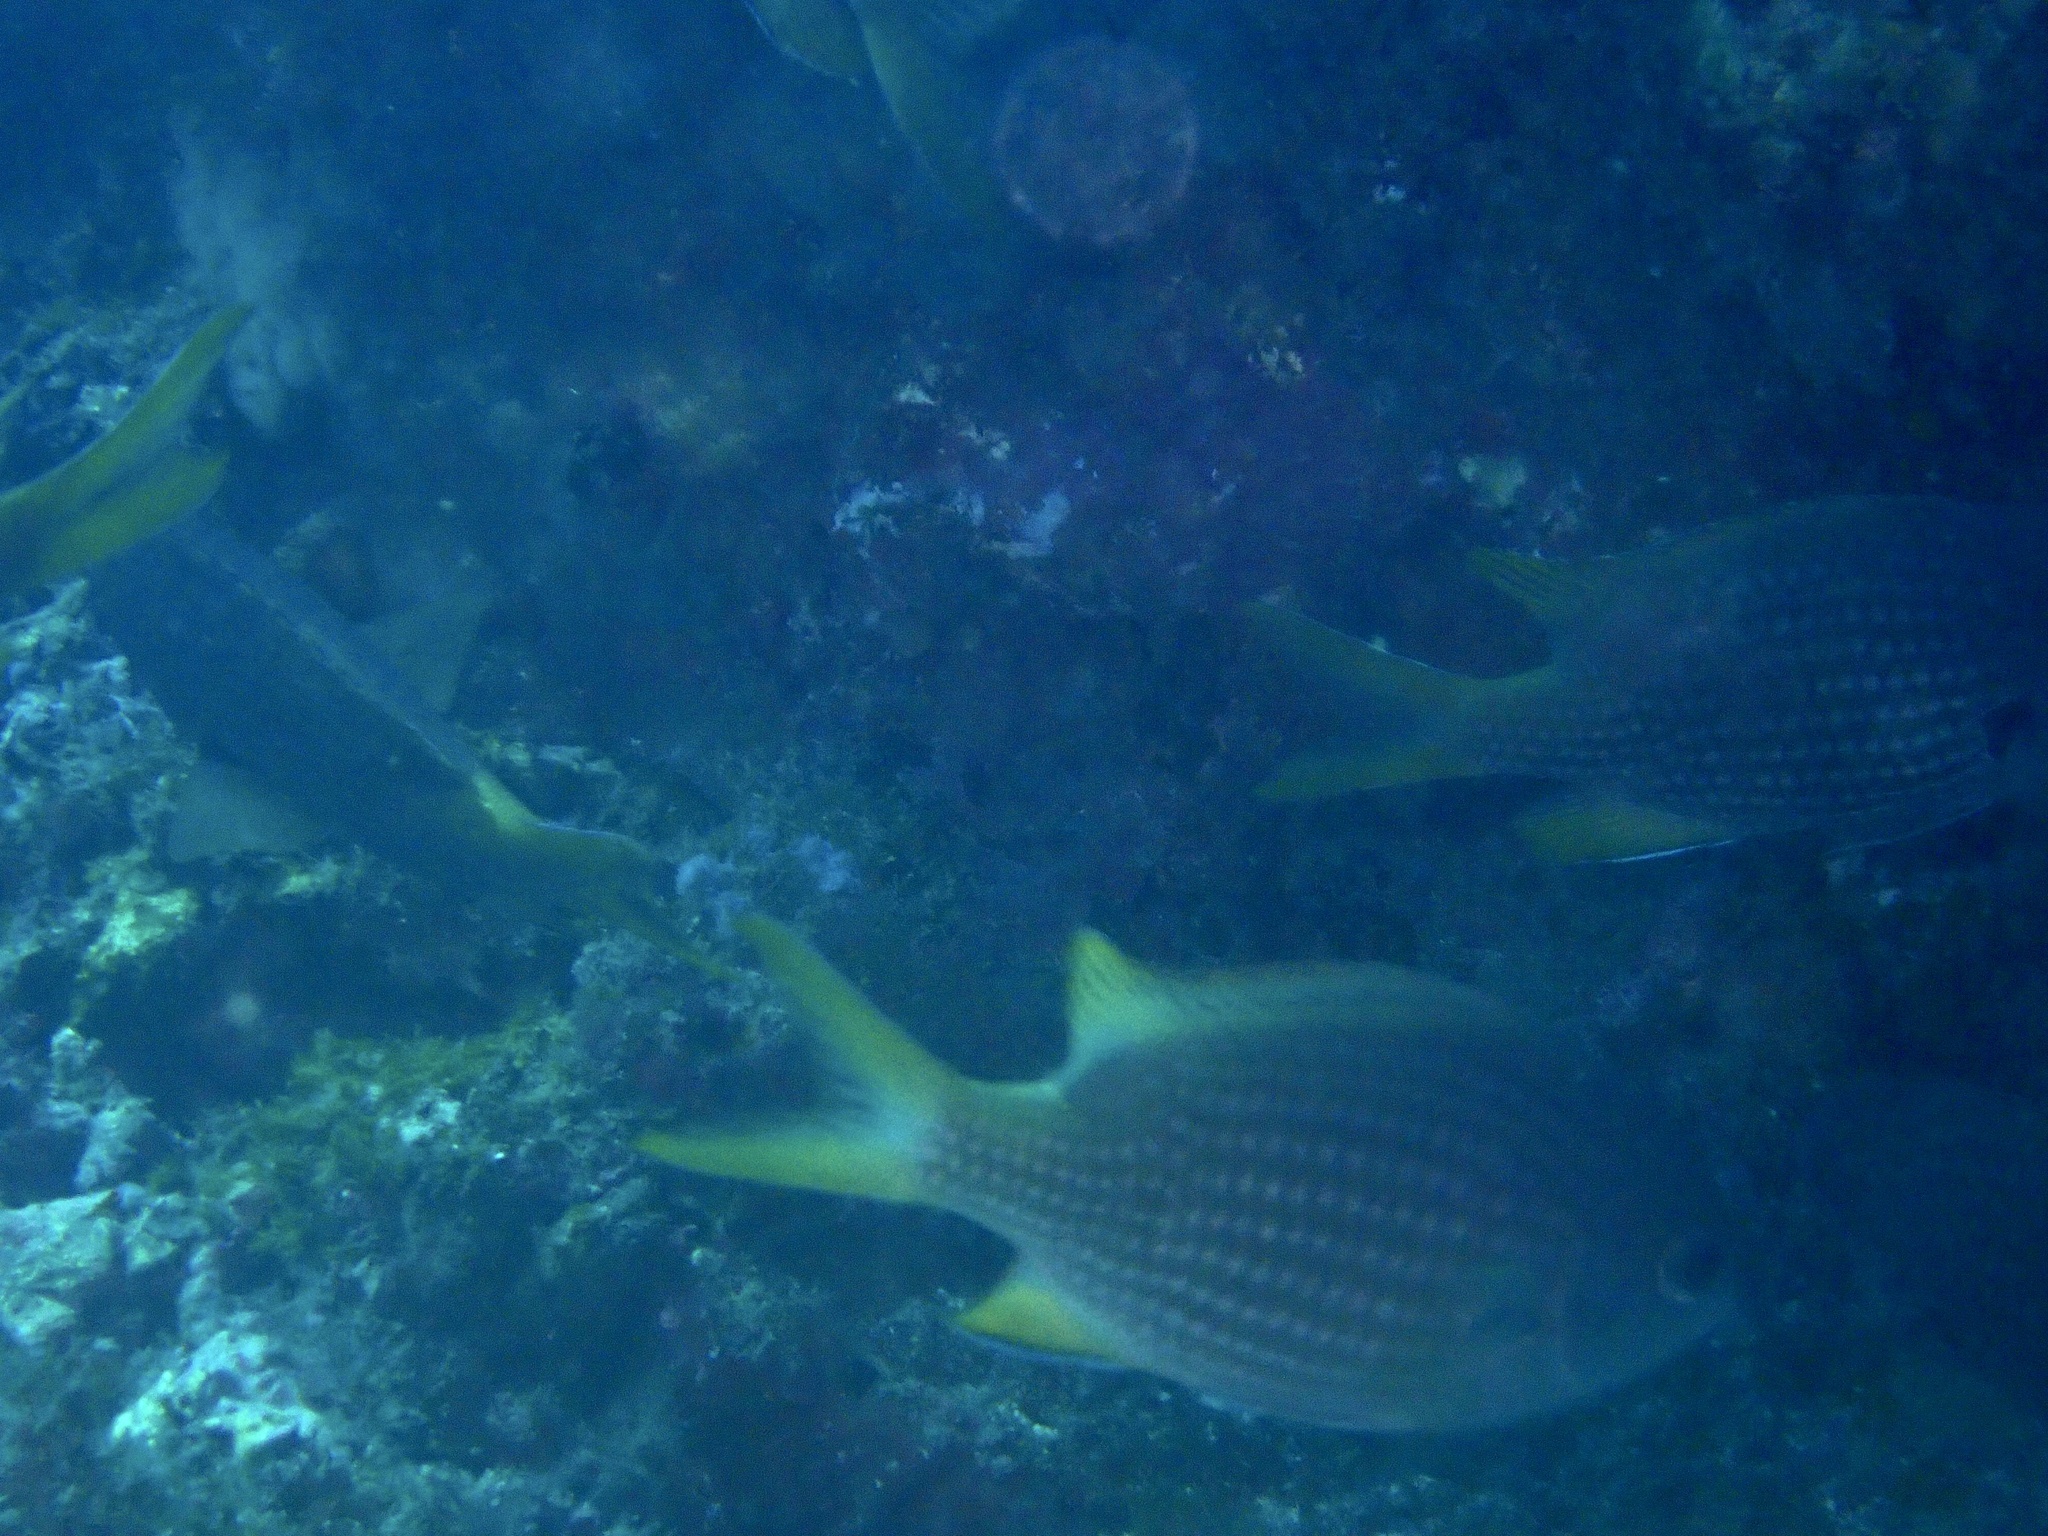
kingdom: Animalia
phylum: Chordata
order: Perciformes
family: Pomacentridae
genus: Chromis
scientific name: Chromis lubbocki
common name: Lubbock's chromis
